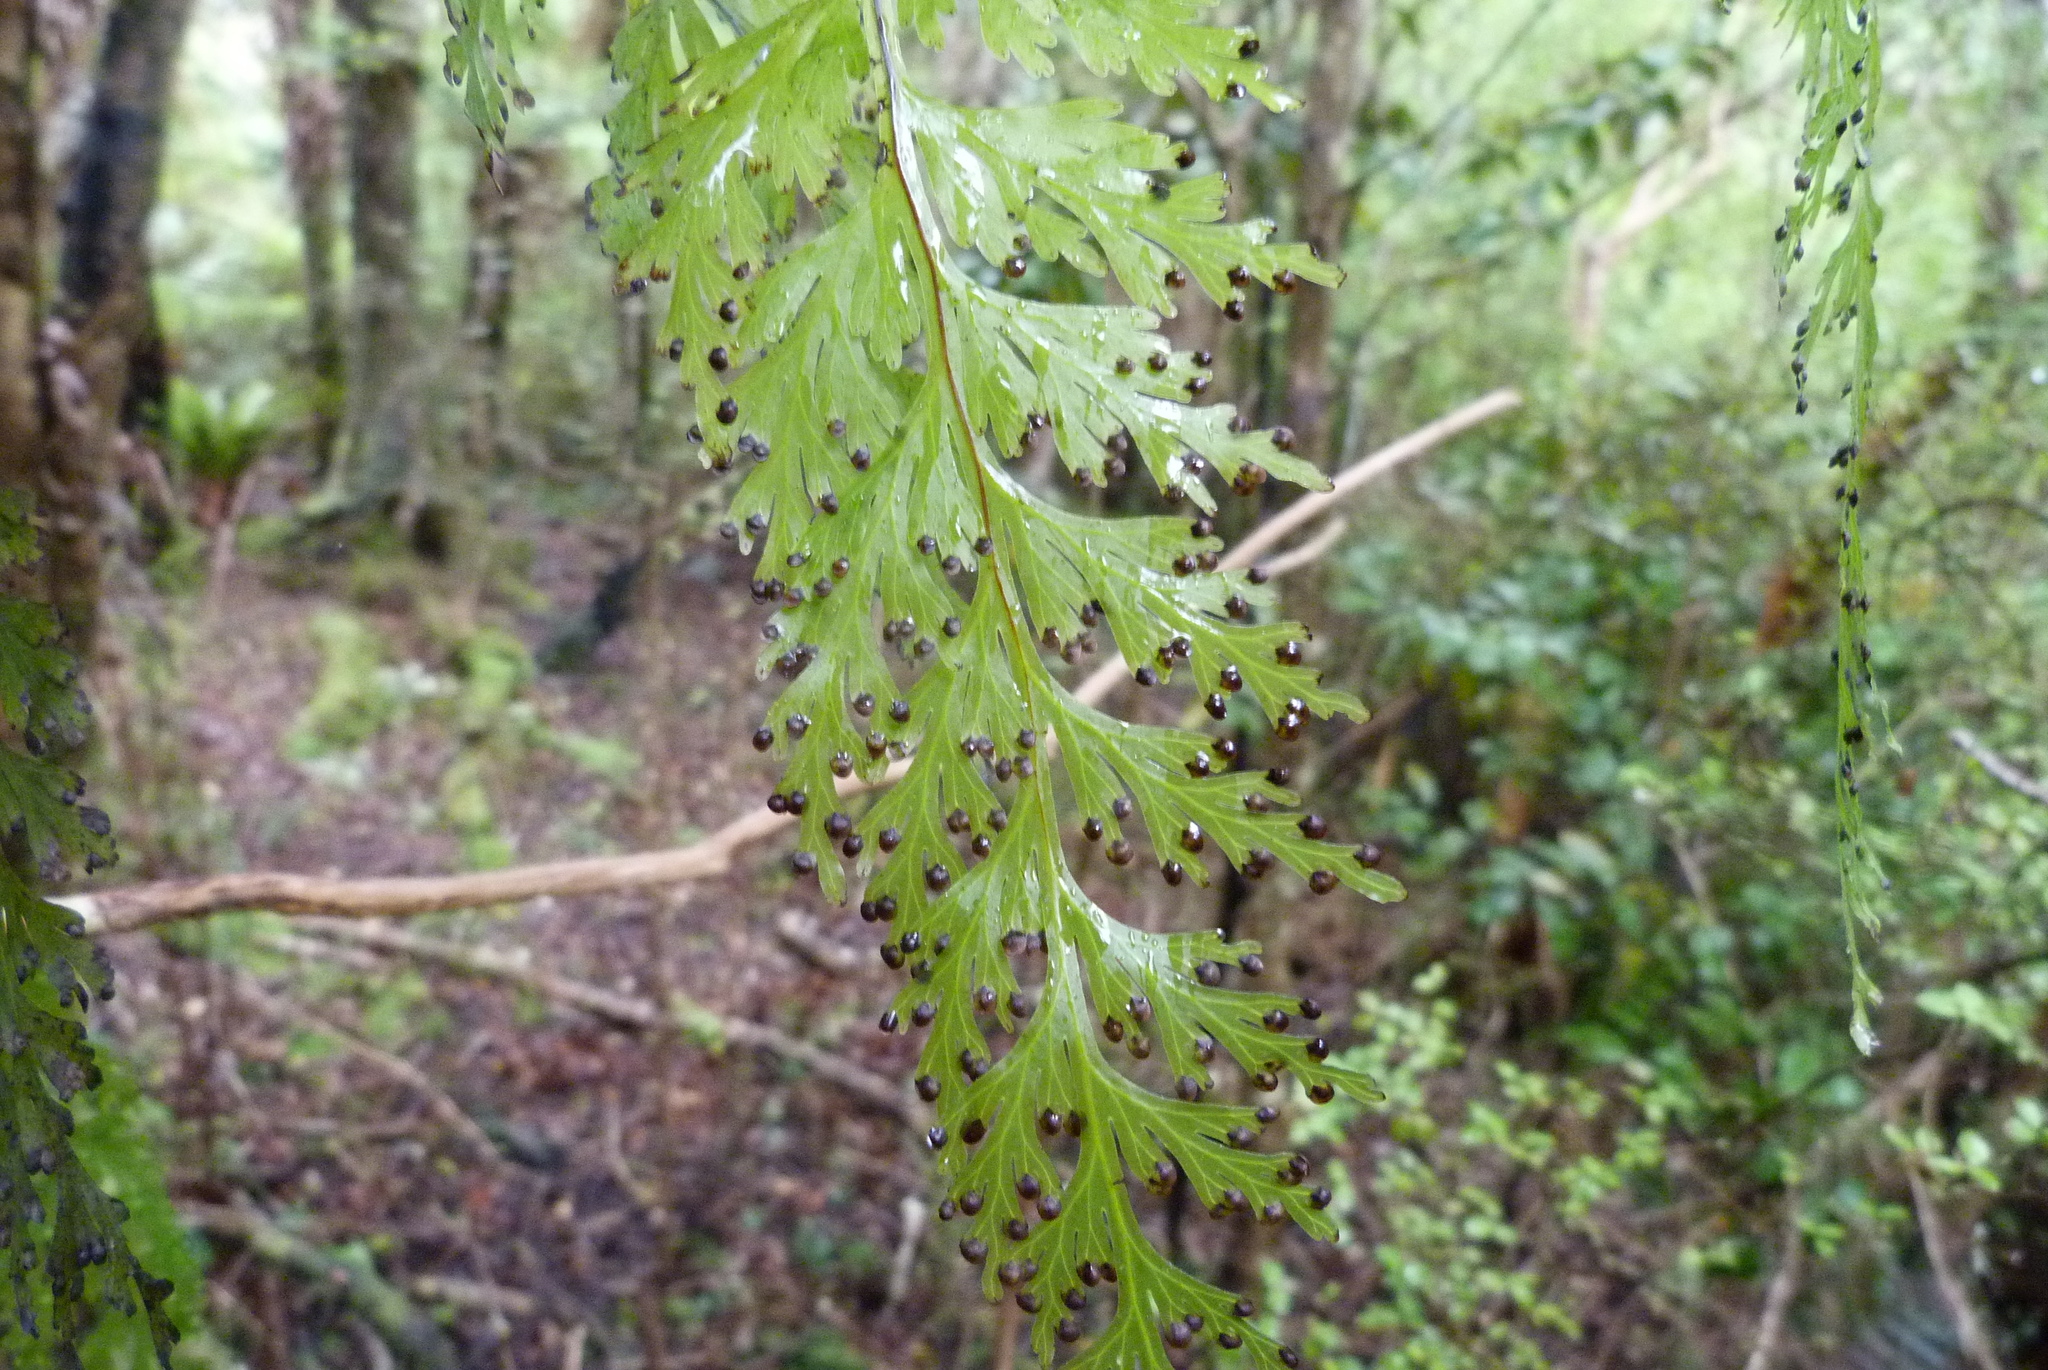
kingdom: Plantae
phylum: Tracheophyta
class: Polypodiopsida
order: Hymenophyllales
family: Hymenophyllaceae
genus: Hymenophyllum
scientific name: Hymenophyllum dilatatum
